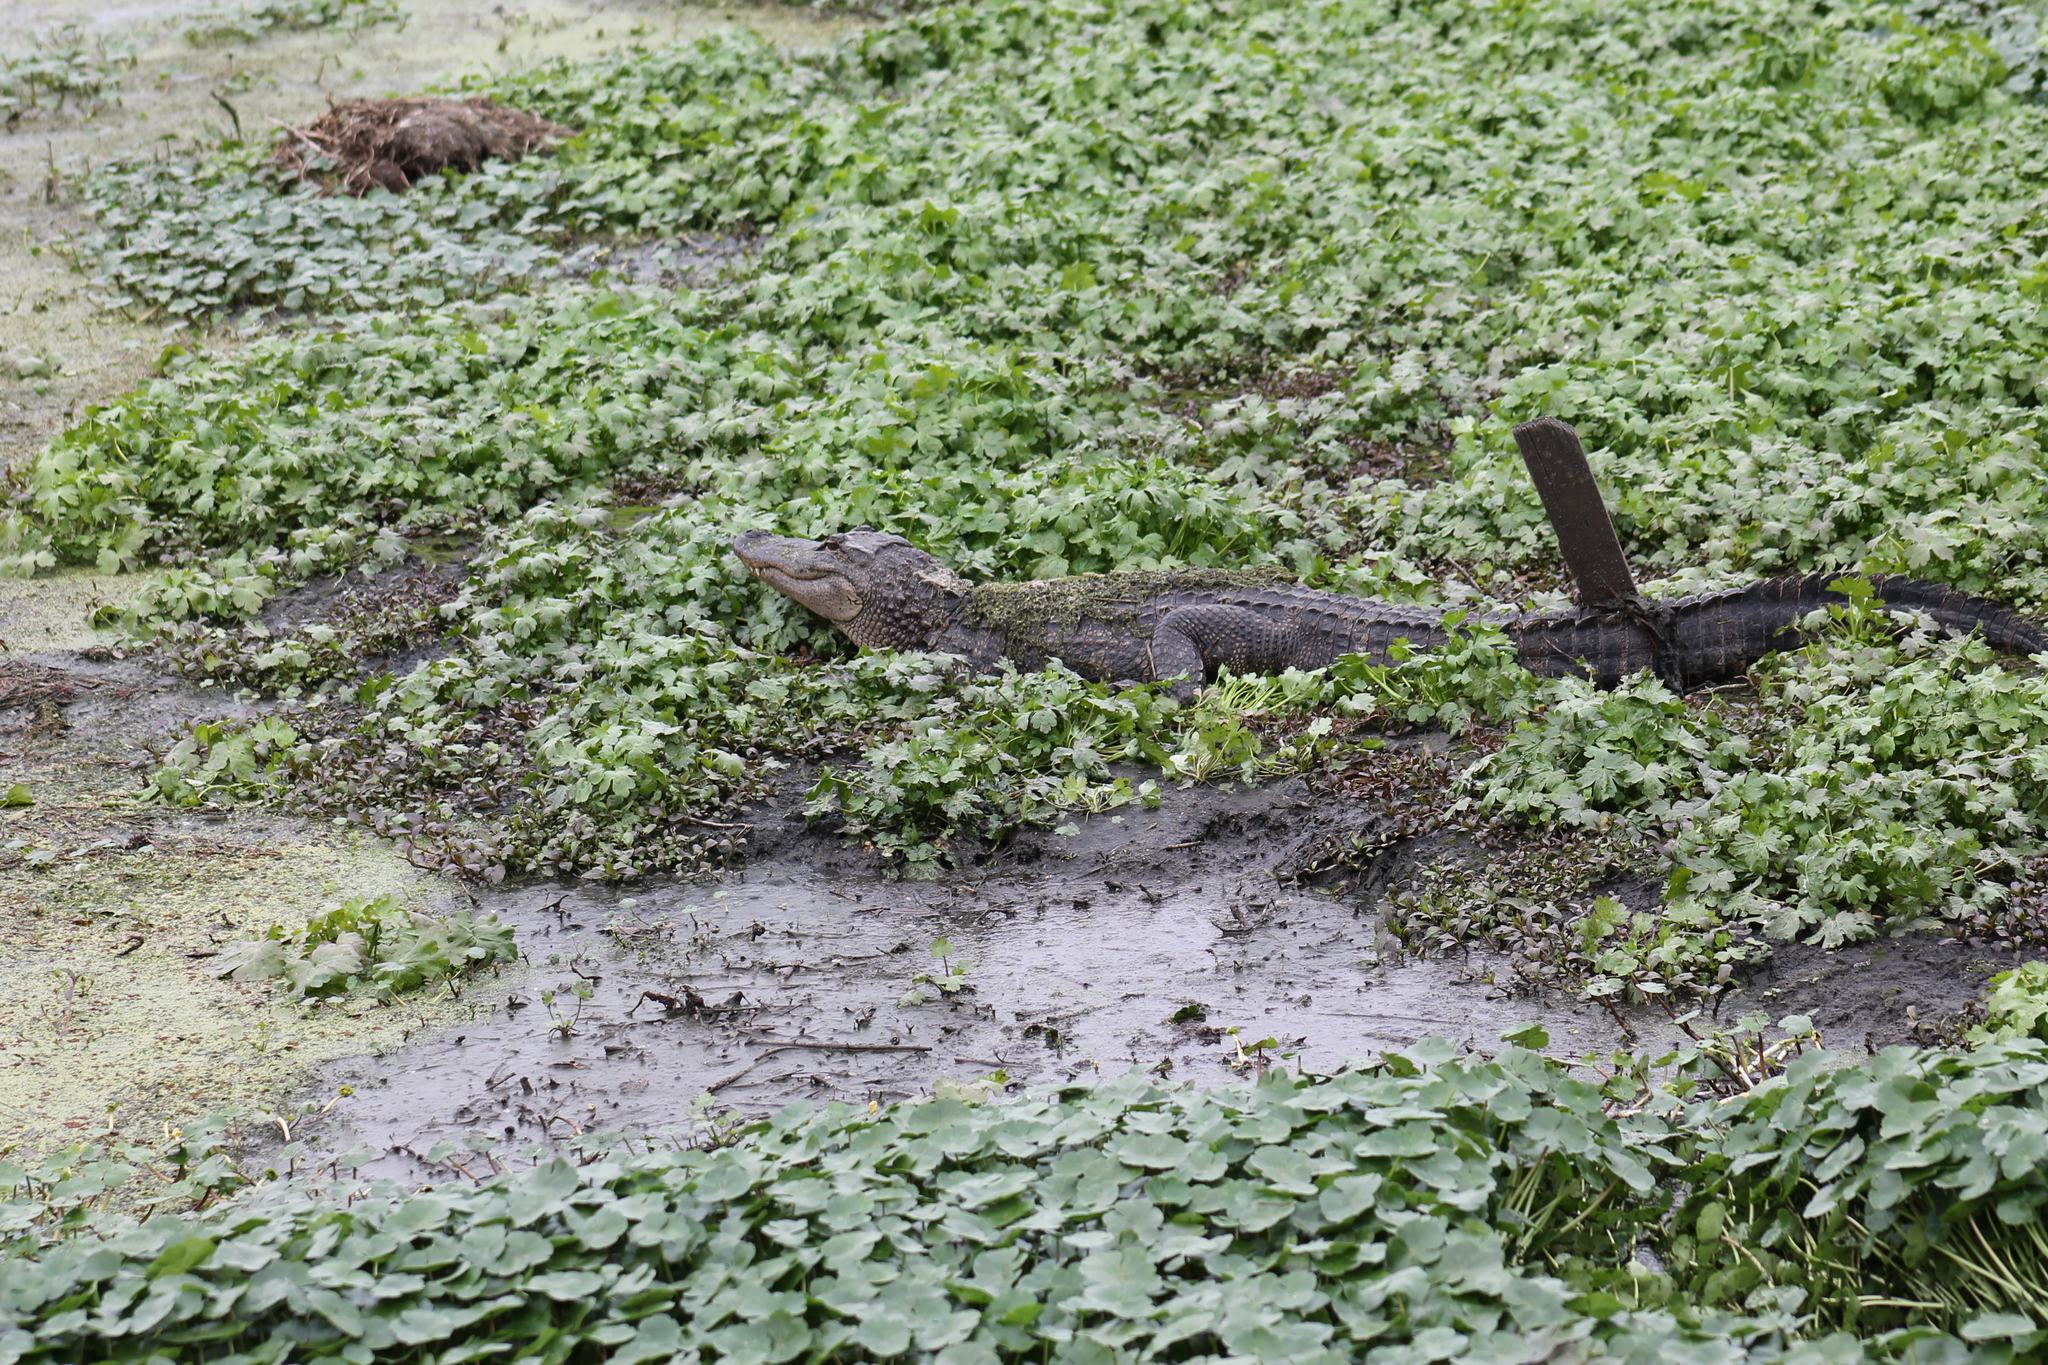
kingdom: Animalia
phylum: Chordata
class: Crocodylia
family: Alligatoridae
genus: Alligator
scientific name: Alligator mississippiensis
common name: American alligator
